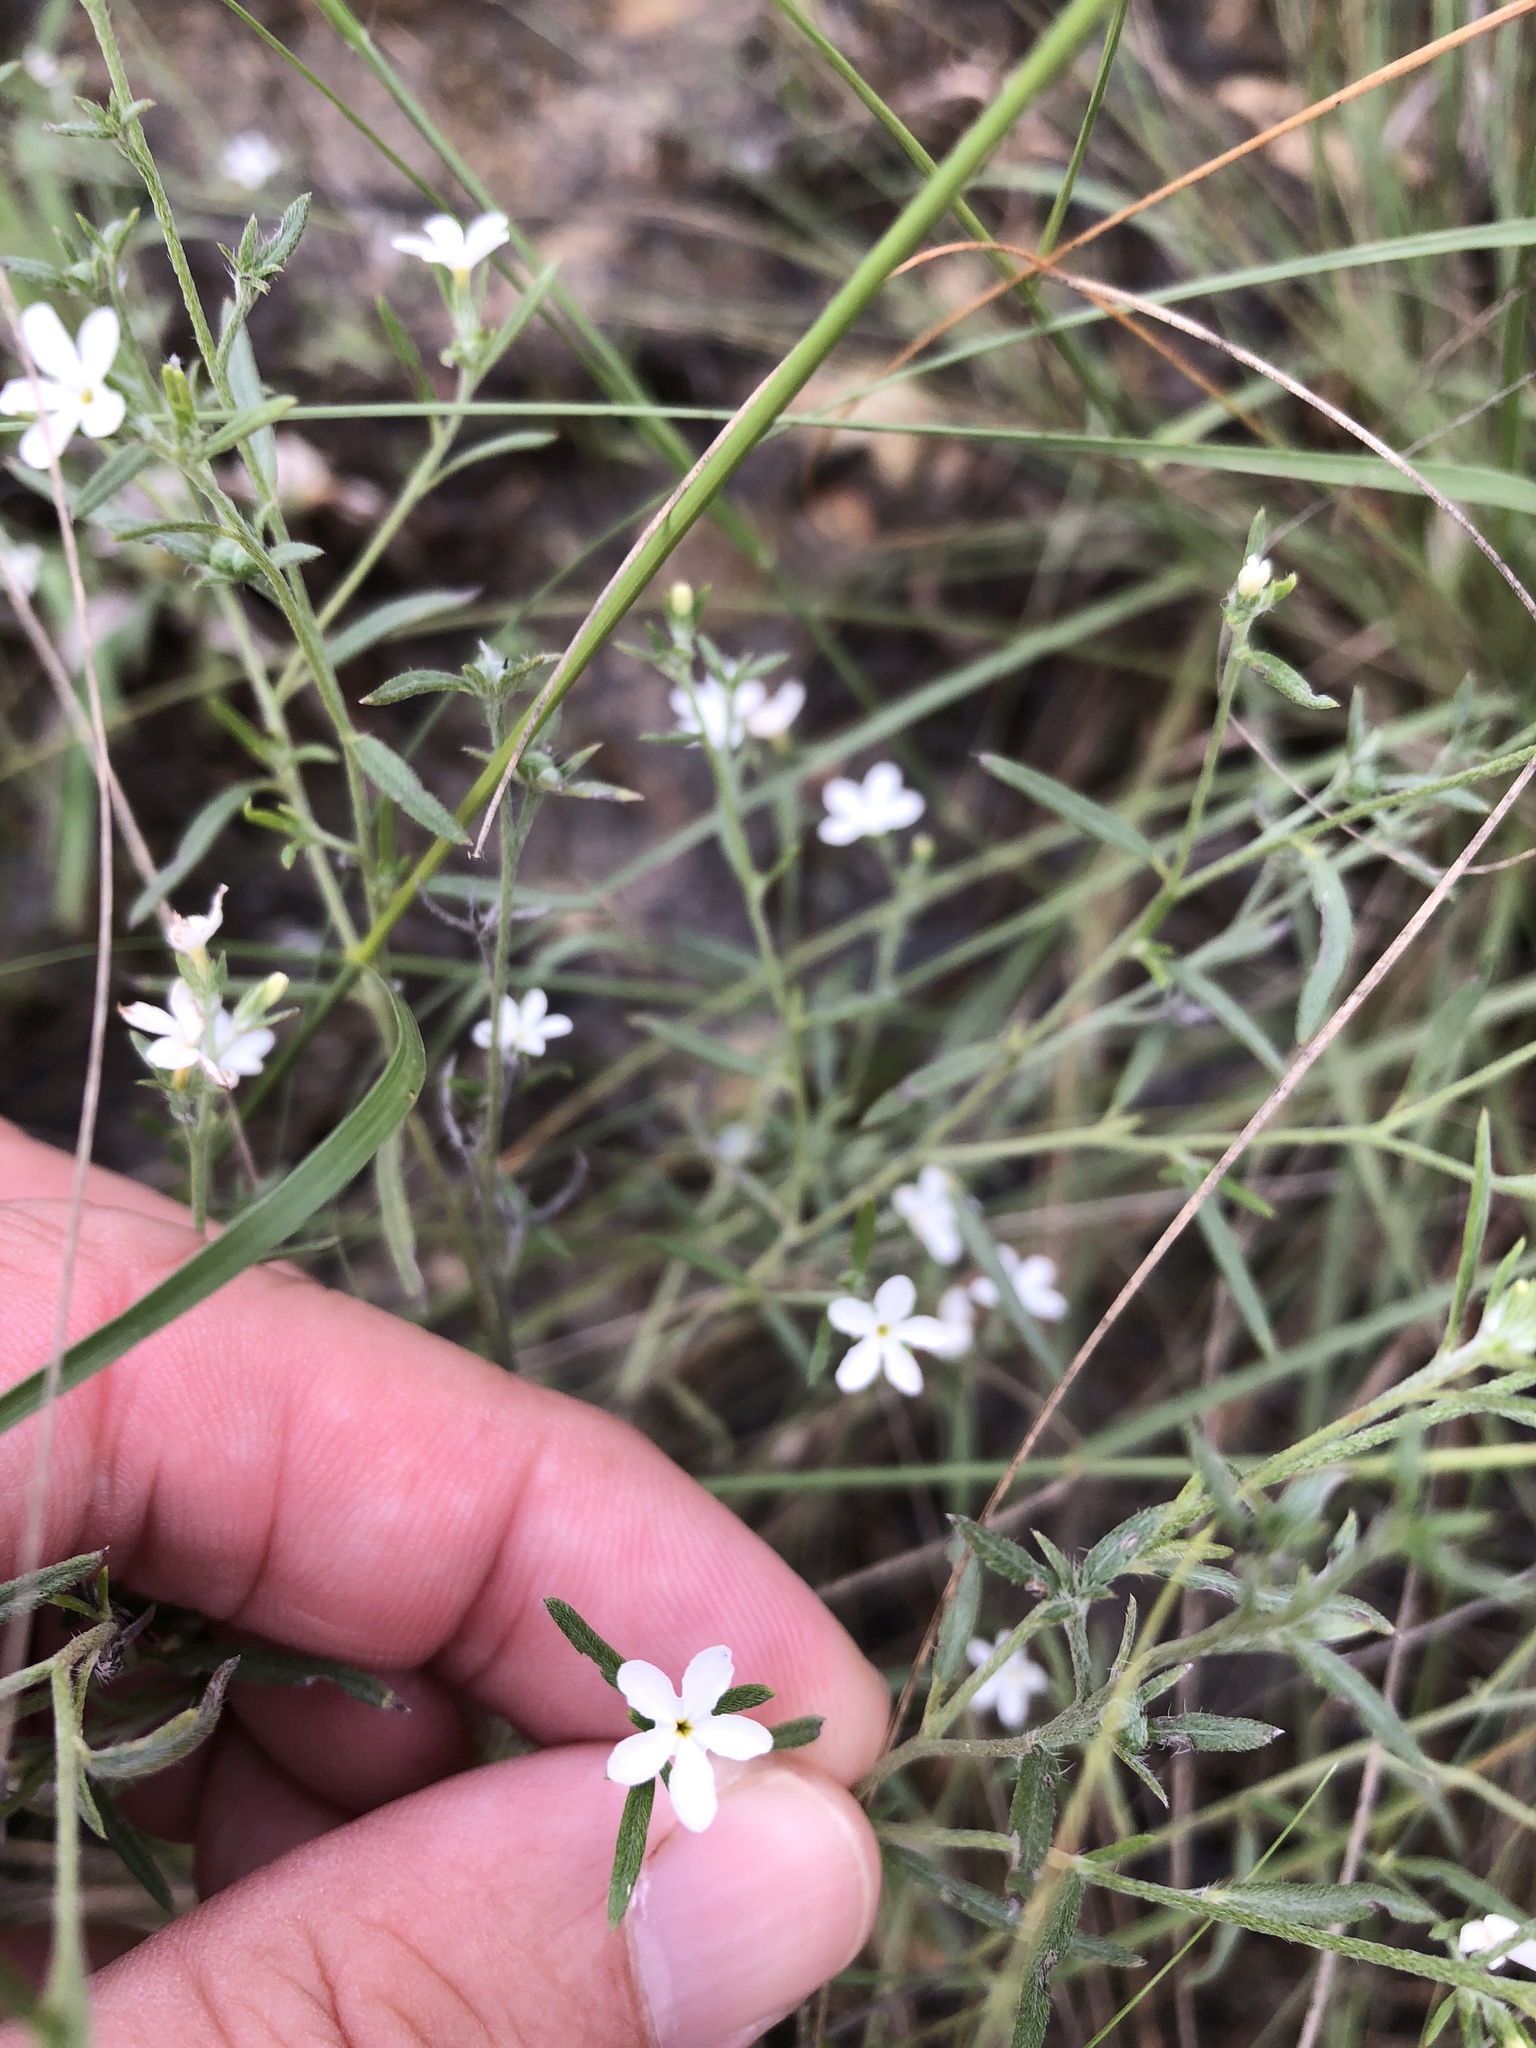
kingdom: Plantae
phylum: Tracheophyta
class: Magnoliopsida
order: Boraginales
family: Heliotropiaceae
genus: Euploca
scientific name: Euploca tenella
